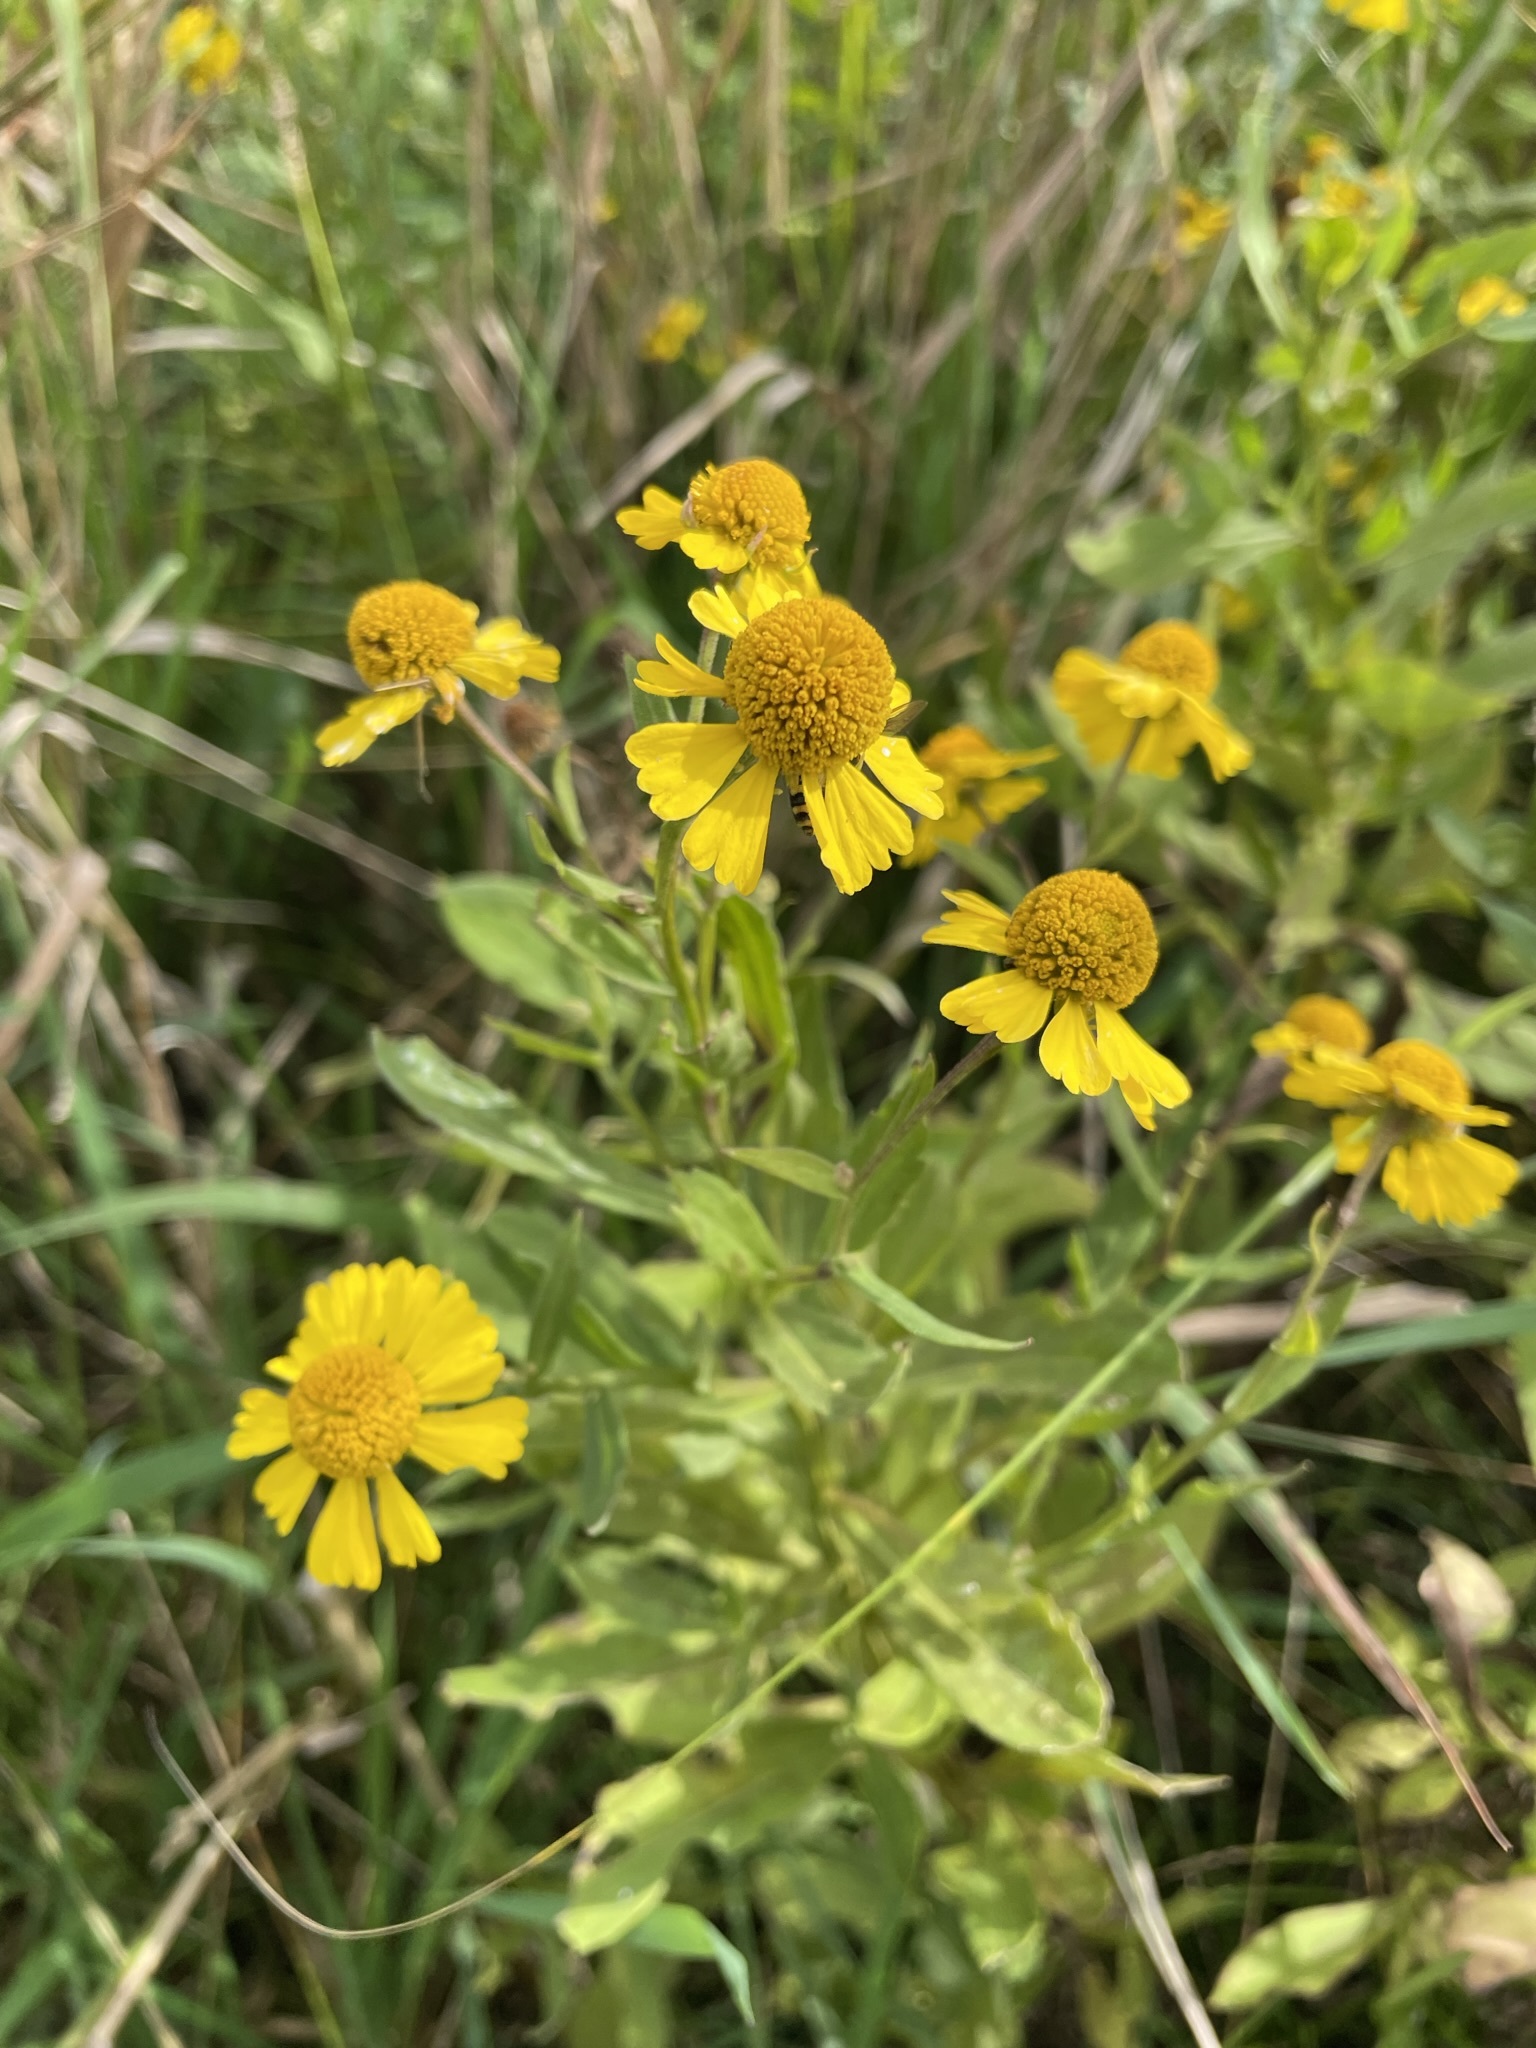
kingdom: Plantae
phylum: Tracheophyta
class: Magnoliopsida
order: Asterales
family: Asteraceae
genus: Helenium
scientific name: Helenium autumnale
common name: Sneezeweed
